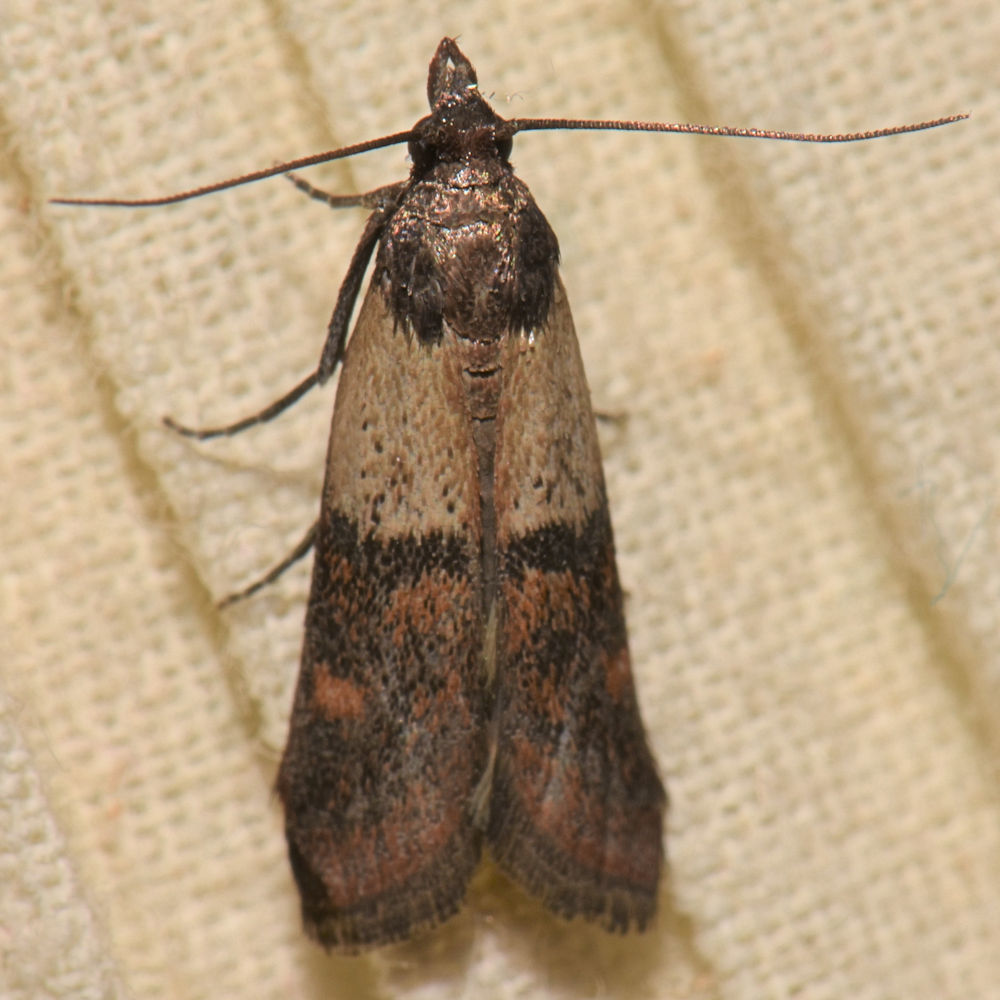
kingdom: Animalia
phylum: Arthropoda
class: Insecta
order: Lepidoptera
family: Pyralidae
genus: Plodia
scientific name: Plodia interpunctella
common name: Indian meal moth
